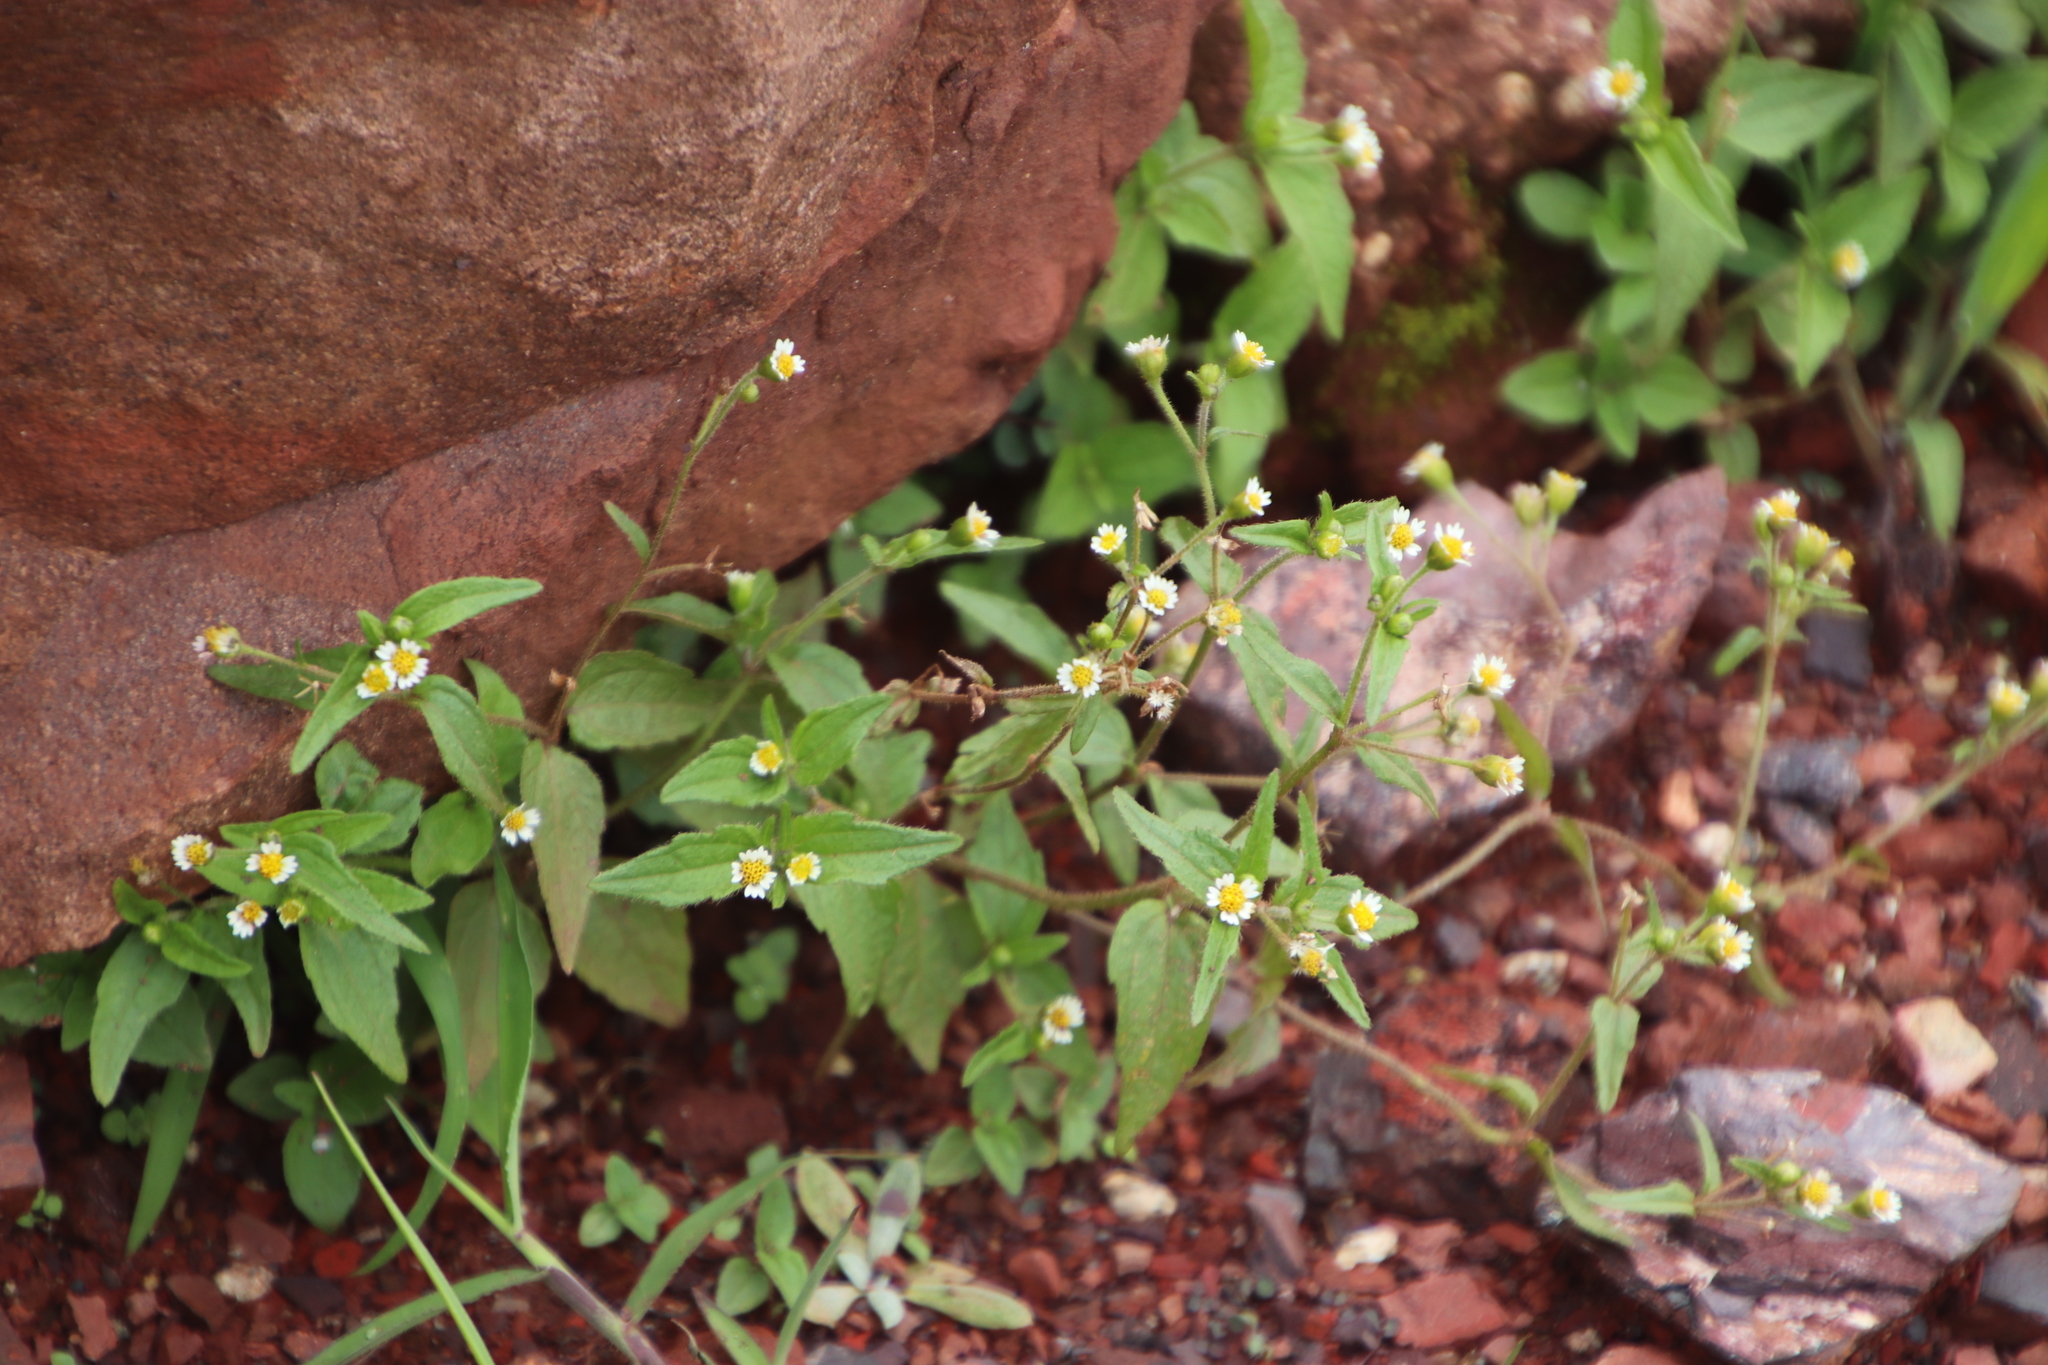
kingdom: Plantae
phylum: Tracheophyta
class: Magnoliopsida
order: Asterales
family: Asteraceae
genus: Galinsoga
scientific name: Galinsoga quadriradiata
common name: Shaggy soldier
